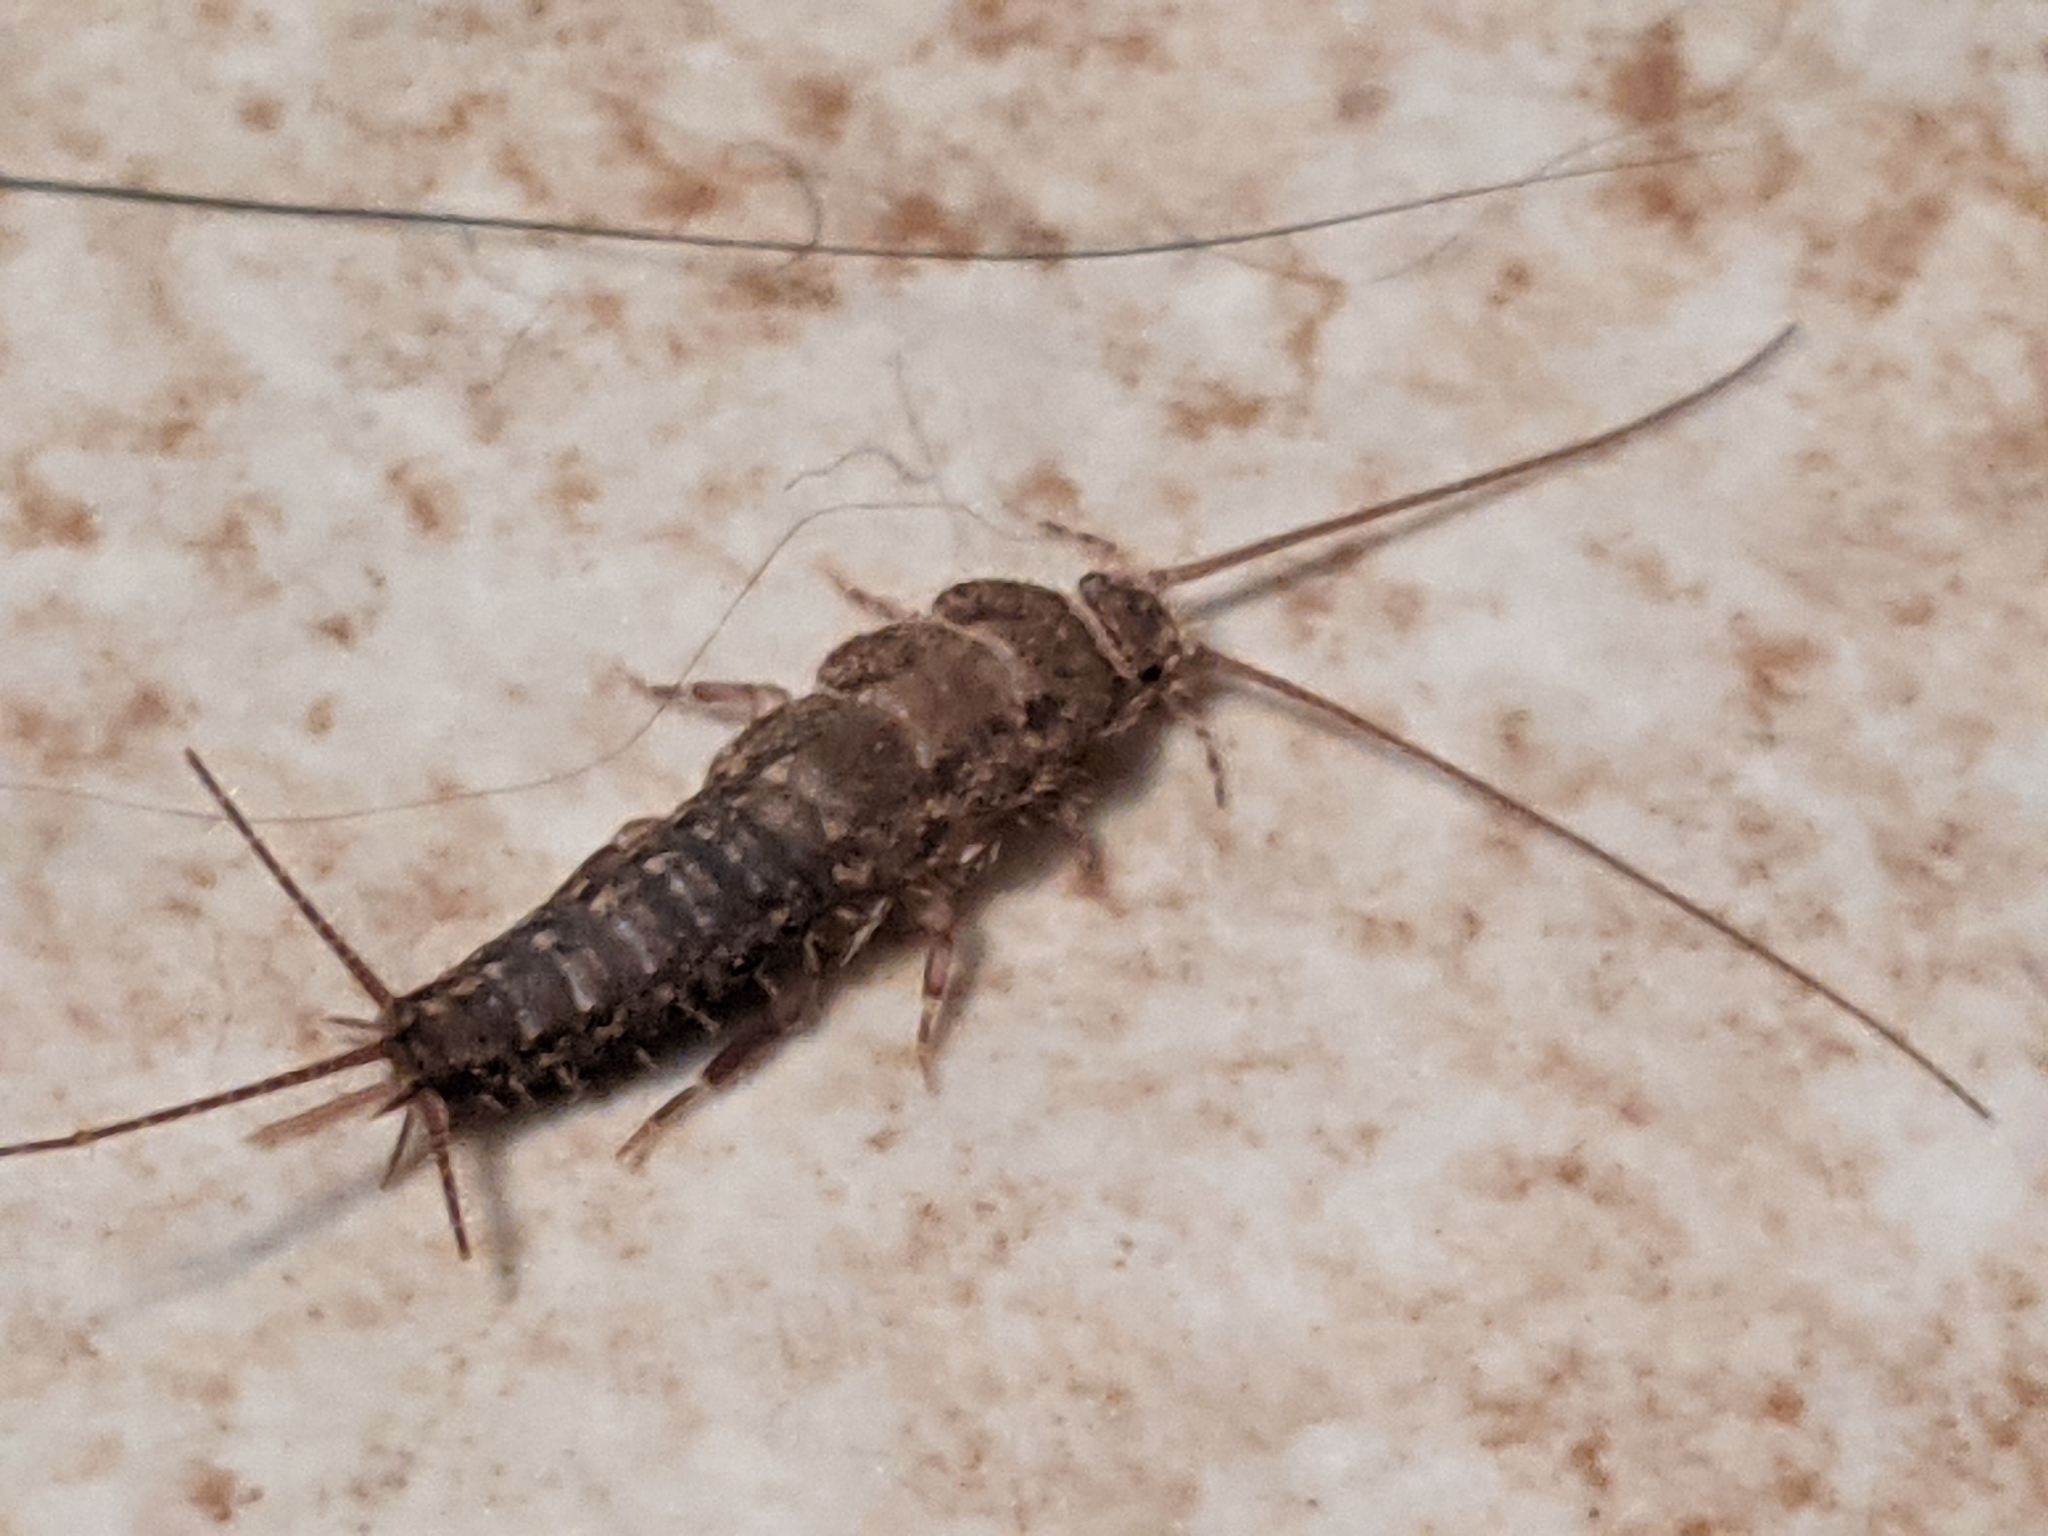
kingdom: Animalia
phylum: Arthropoda
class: Insecta
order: Zygentoma
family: Lepismatidae
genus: Ctenolepisma
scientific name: Ctenolepisma lineata
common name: Four-lined silverfish
